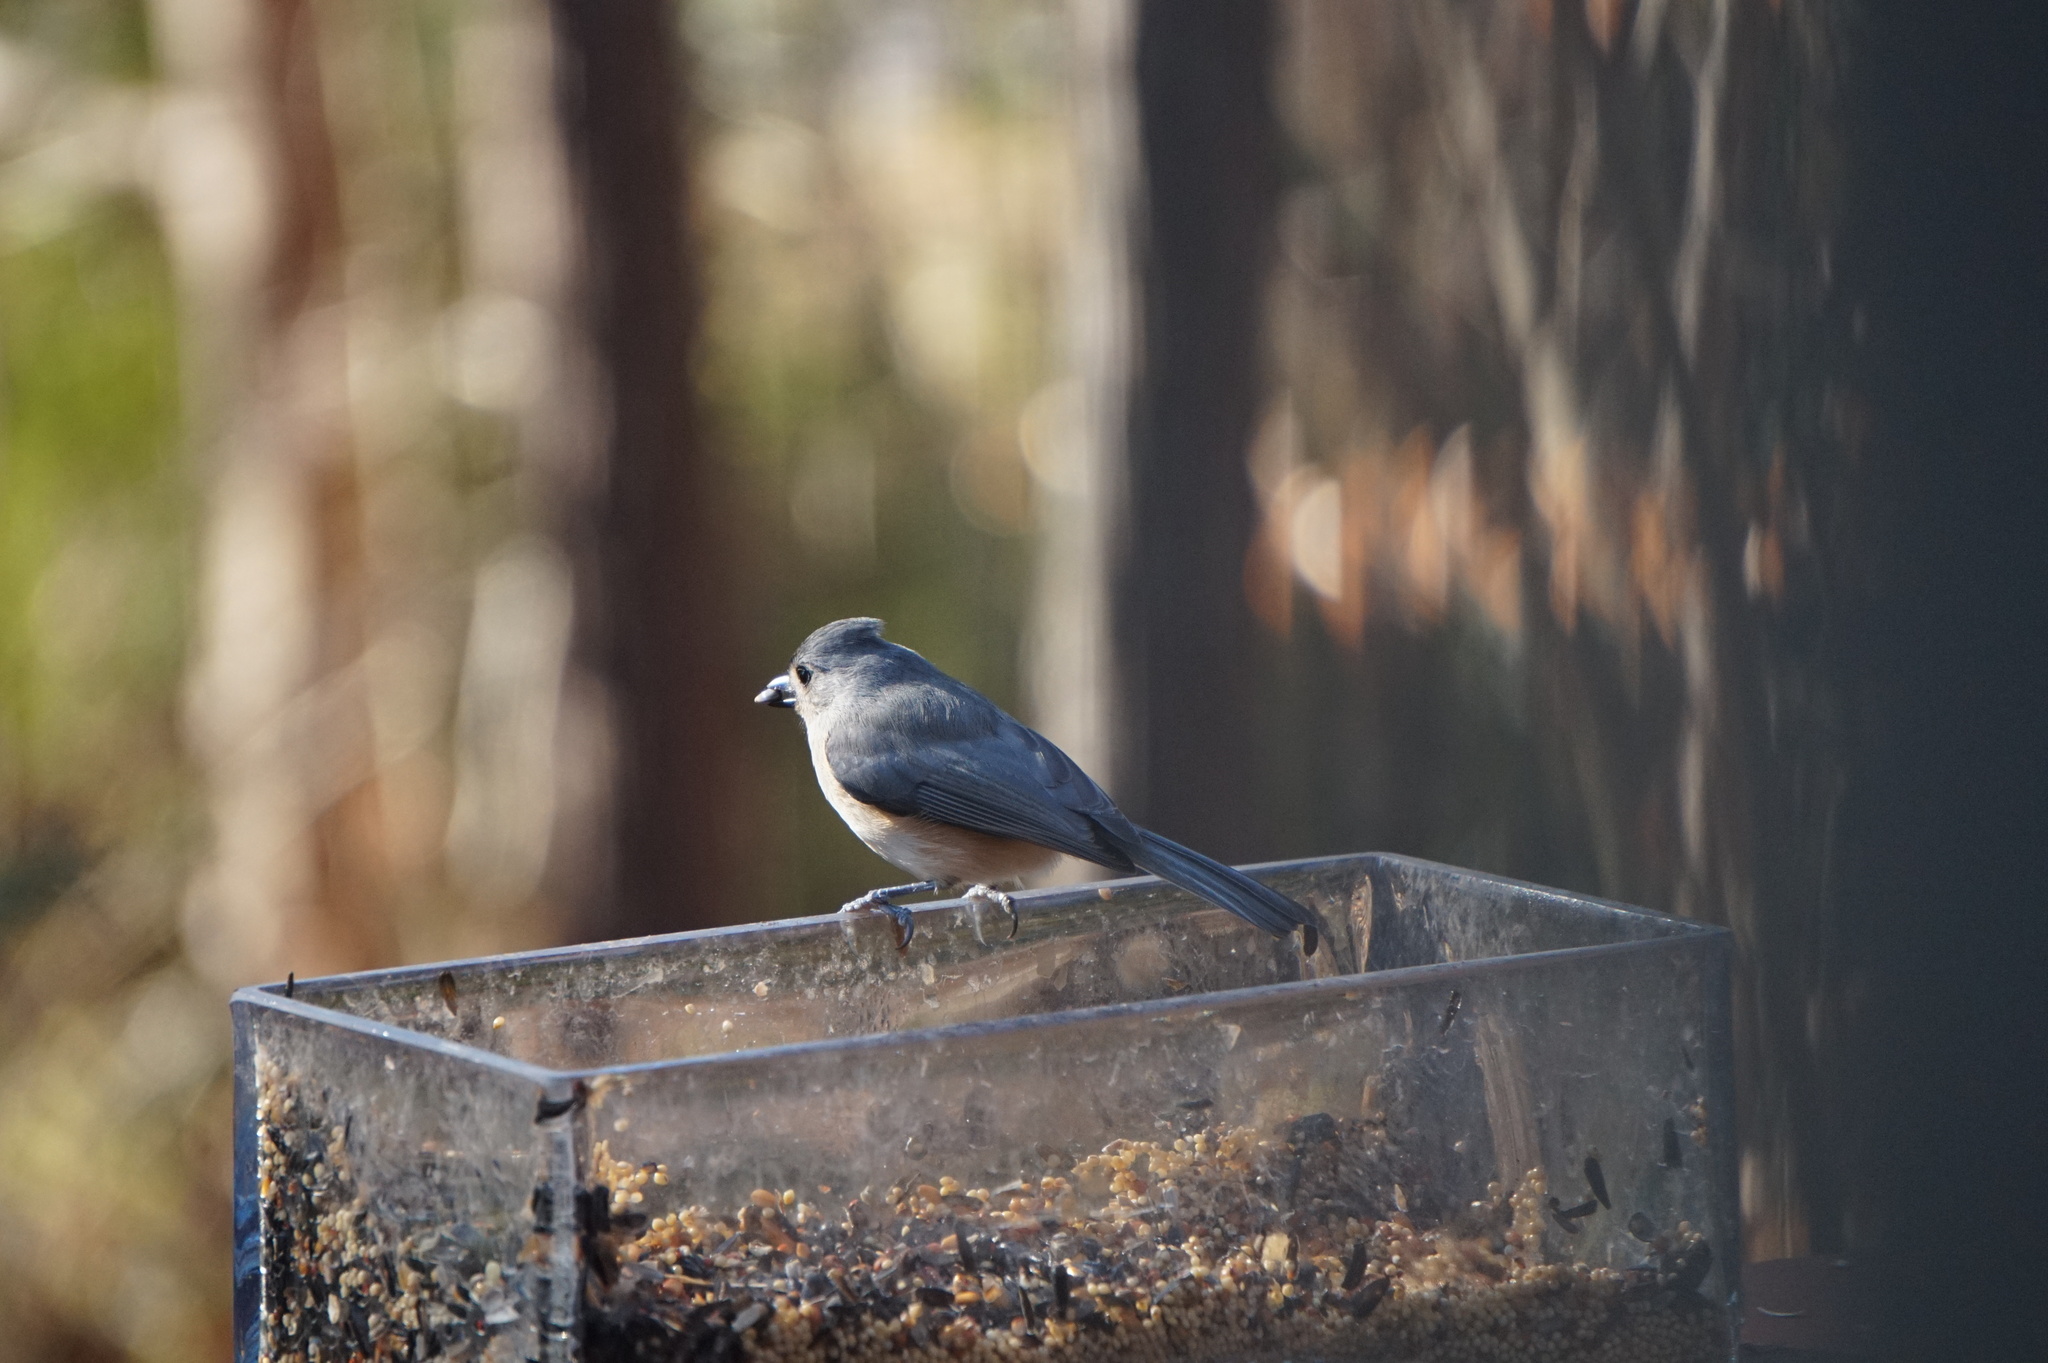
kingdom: Animalia
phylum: Chordata
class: Aves
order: Passeriformes
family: Paridae
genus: Baeolophus
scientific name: Baeolophus bicolor
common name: Tufted titmouse
